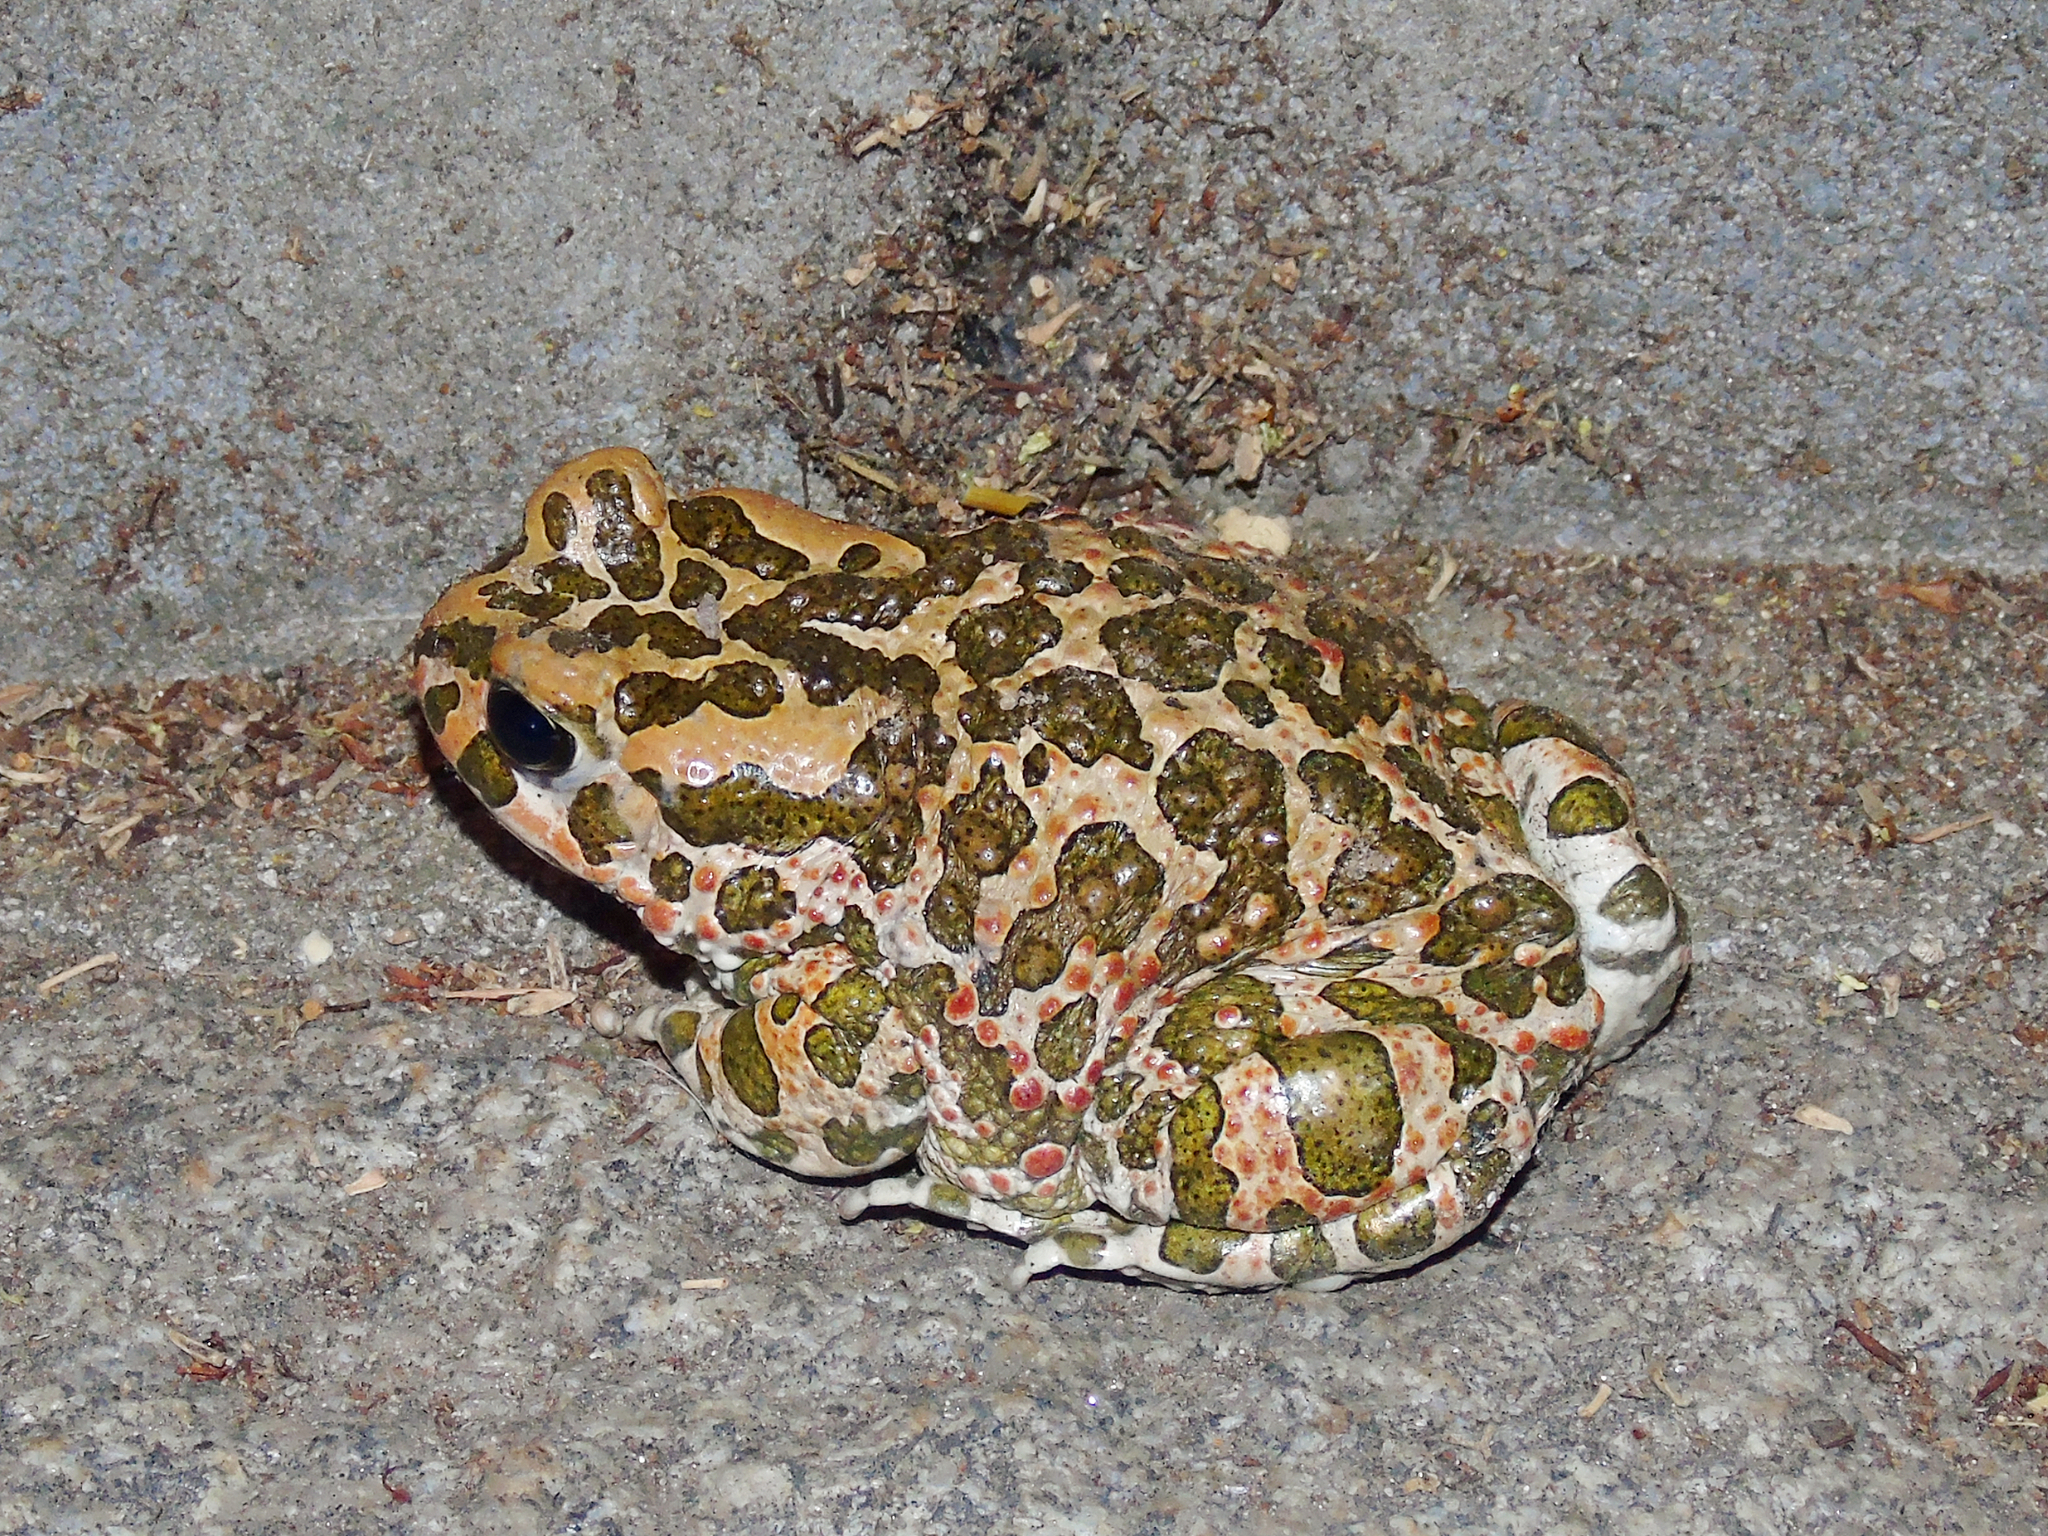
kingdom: Animalia
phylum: Chordata
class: Amphibia
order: Anura
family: Bufonidae
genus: Bufotes
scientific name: Bufotes viridis
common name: European green toad
